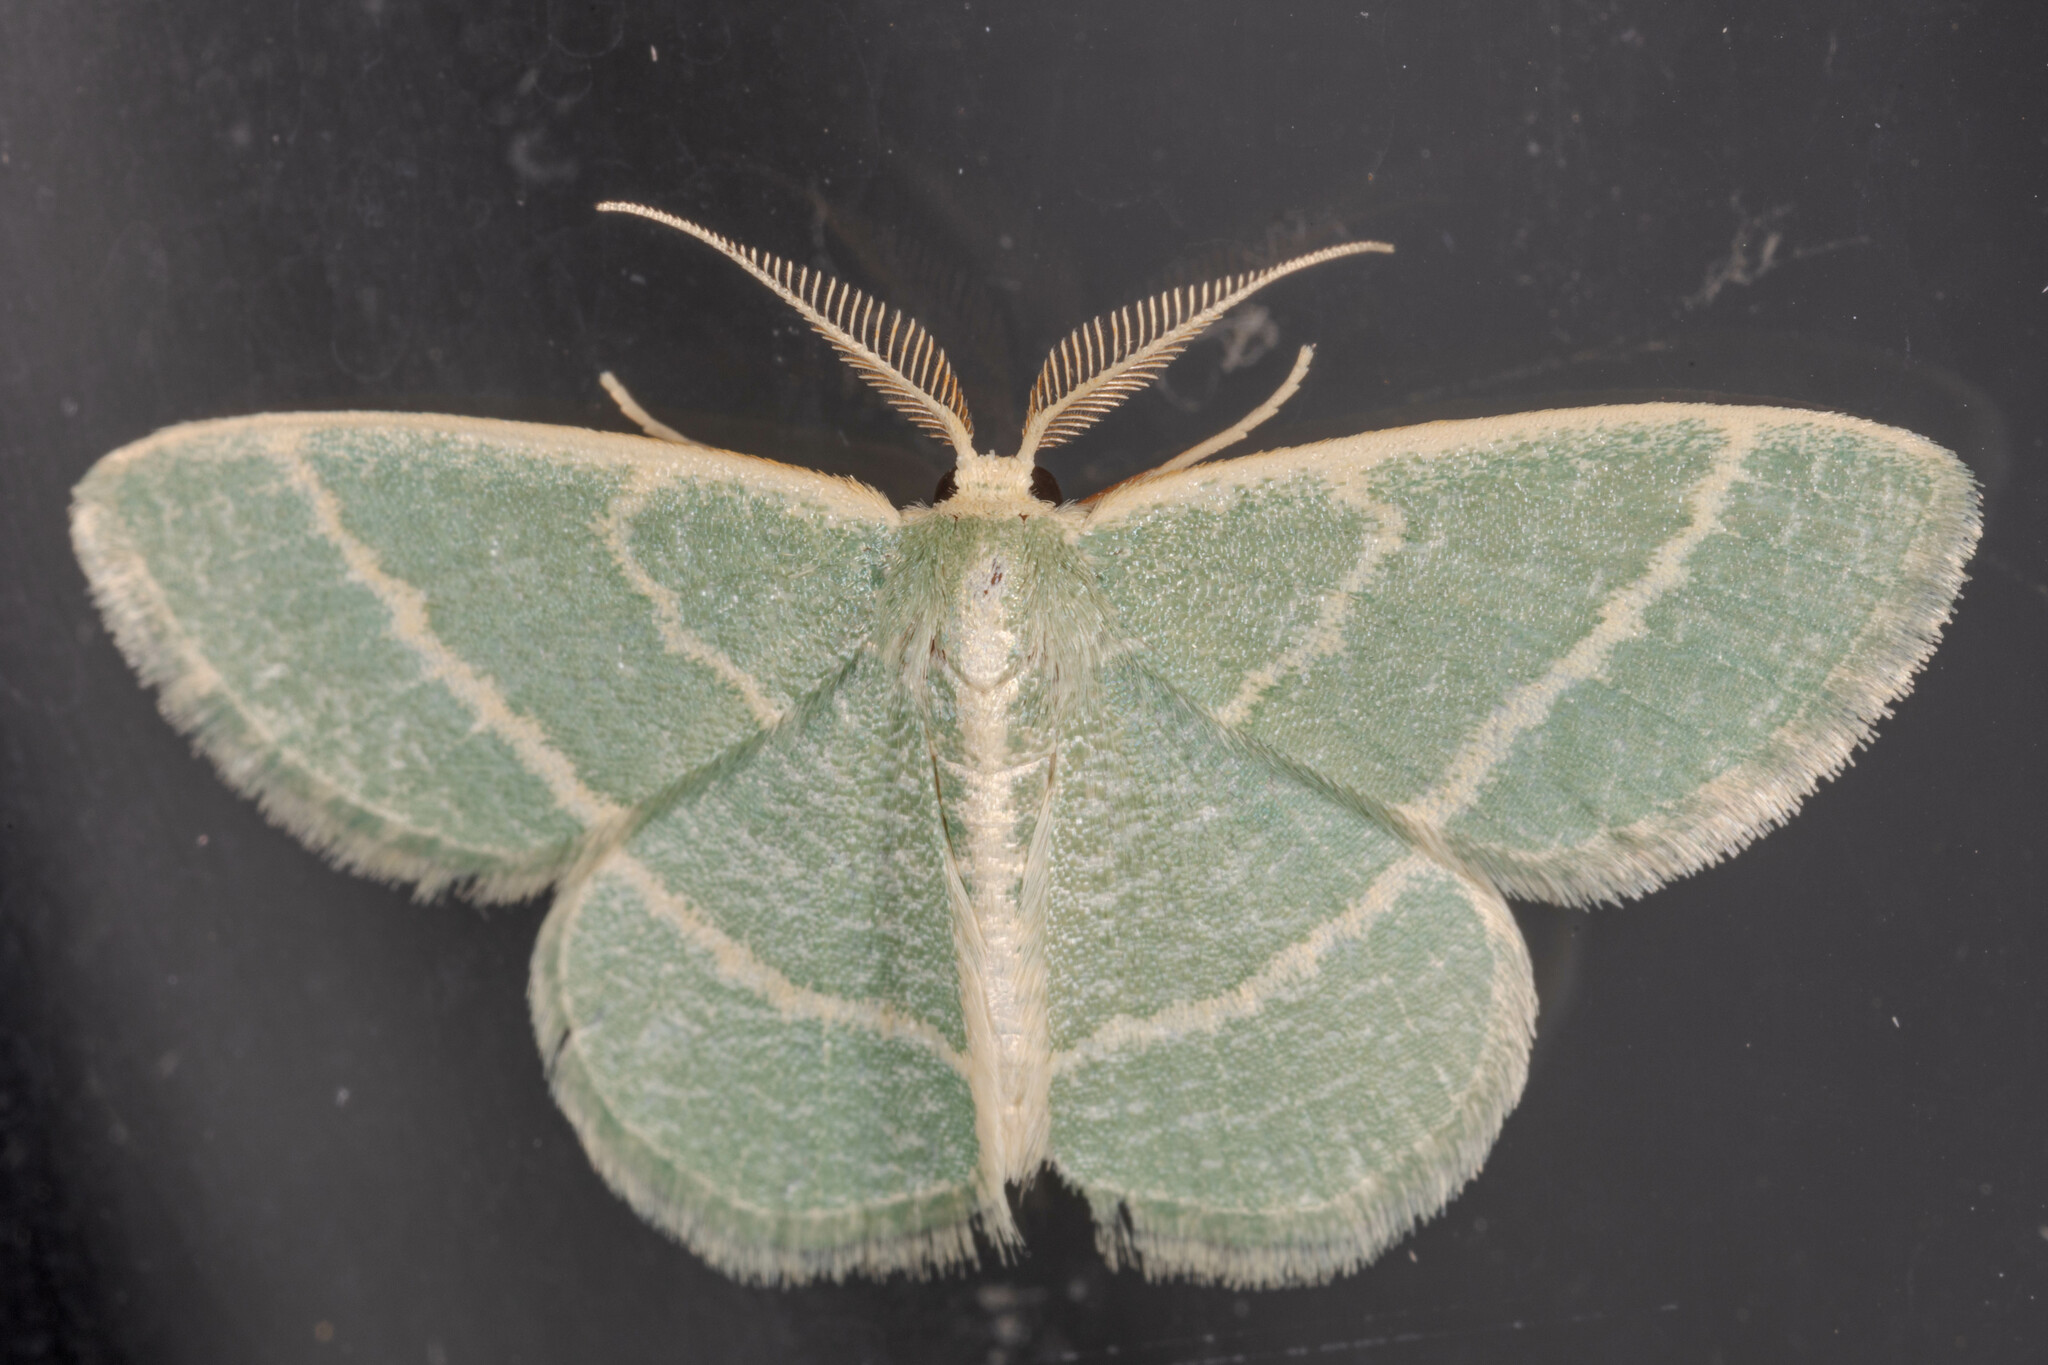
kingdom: Animalia
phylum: Arthropoda
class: Insecta
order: Lepidoptera
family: Geometridae
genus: Chlorochlamys
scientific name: Chlorochlamys chloroleucaria
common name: Blackberry looper
